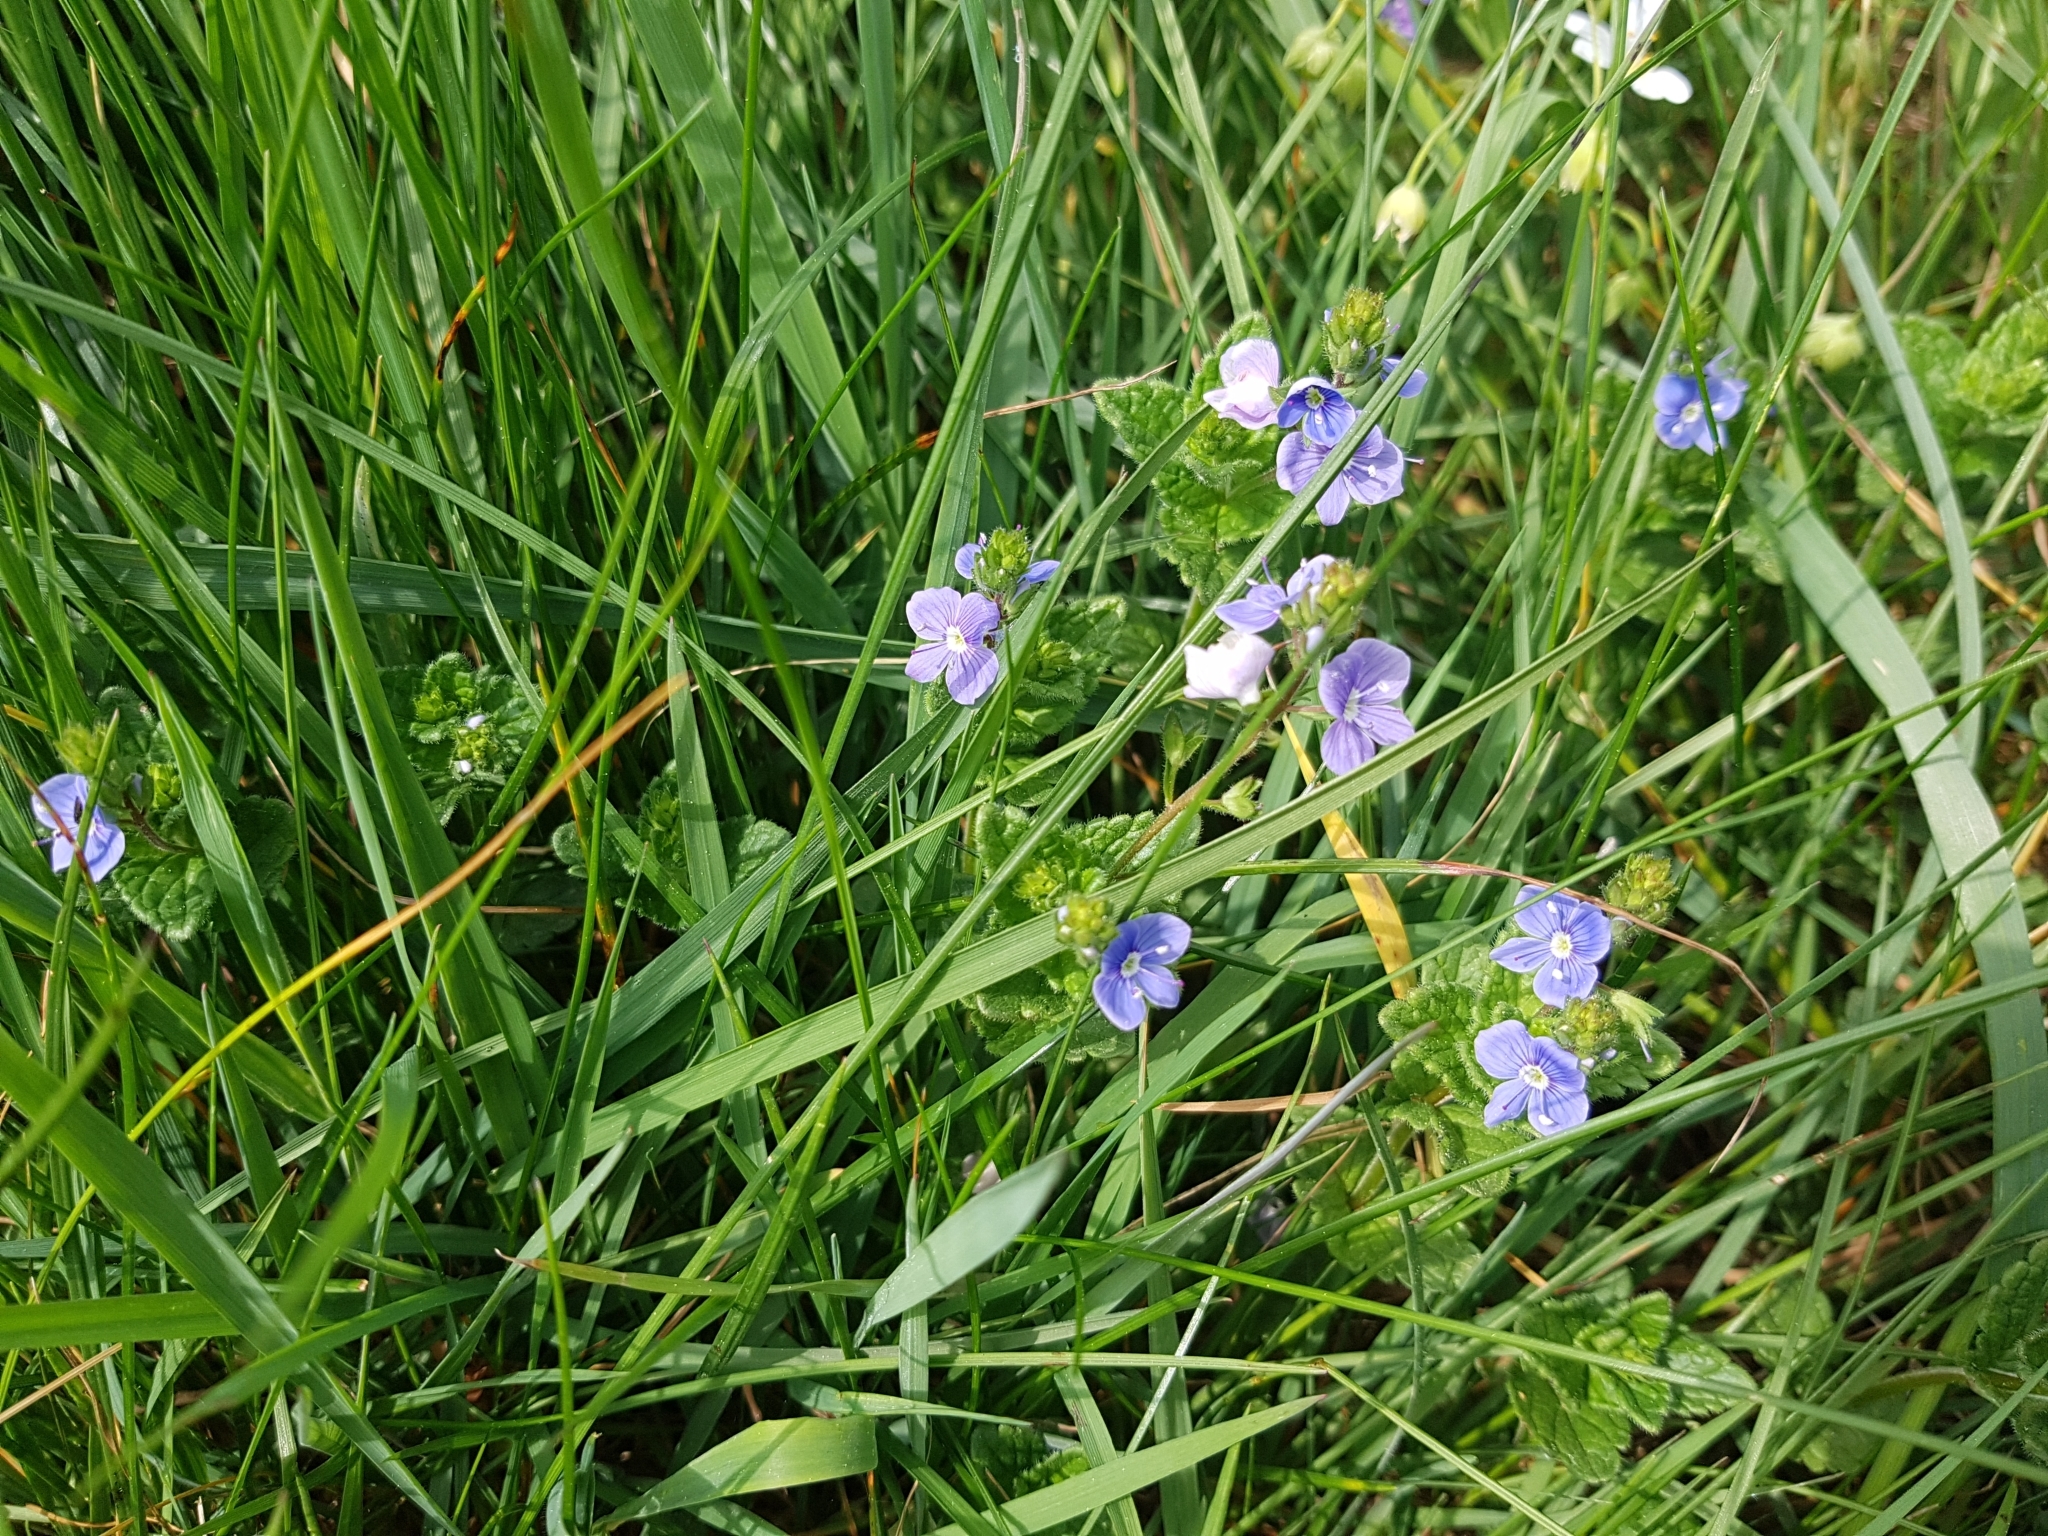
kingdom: Plantae
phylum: Tracheophyta
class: Magnoliopsida
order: Lamiales
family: Plantaginaceae
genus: Veronica
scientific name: Veronica chamaedrys
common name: Germander speedwell
